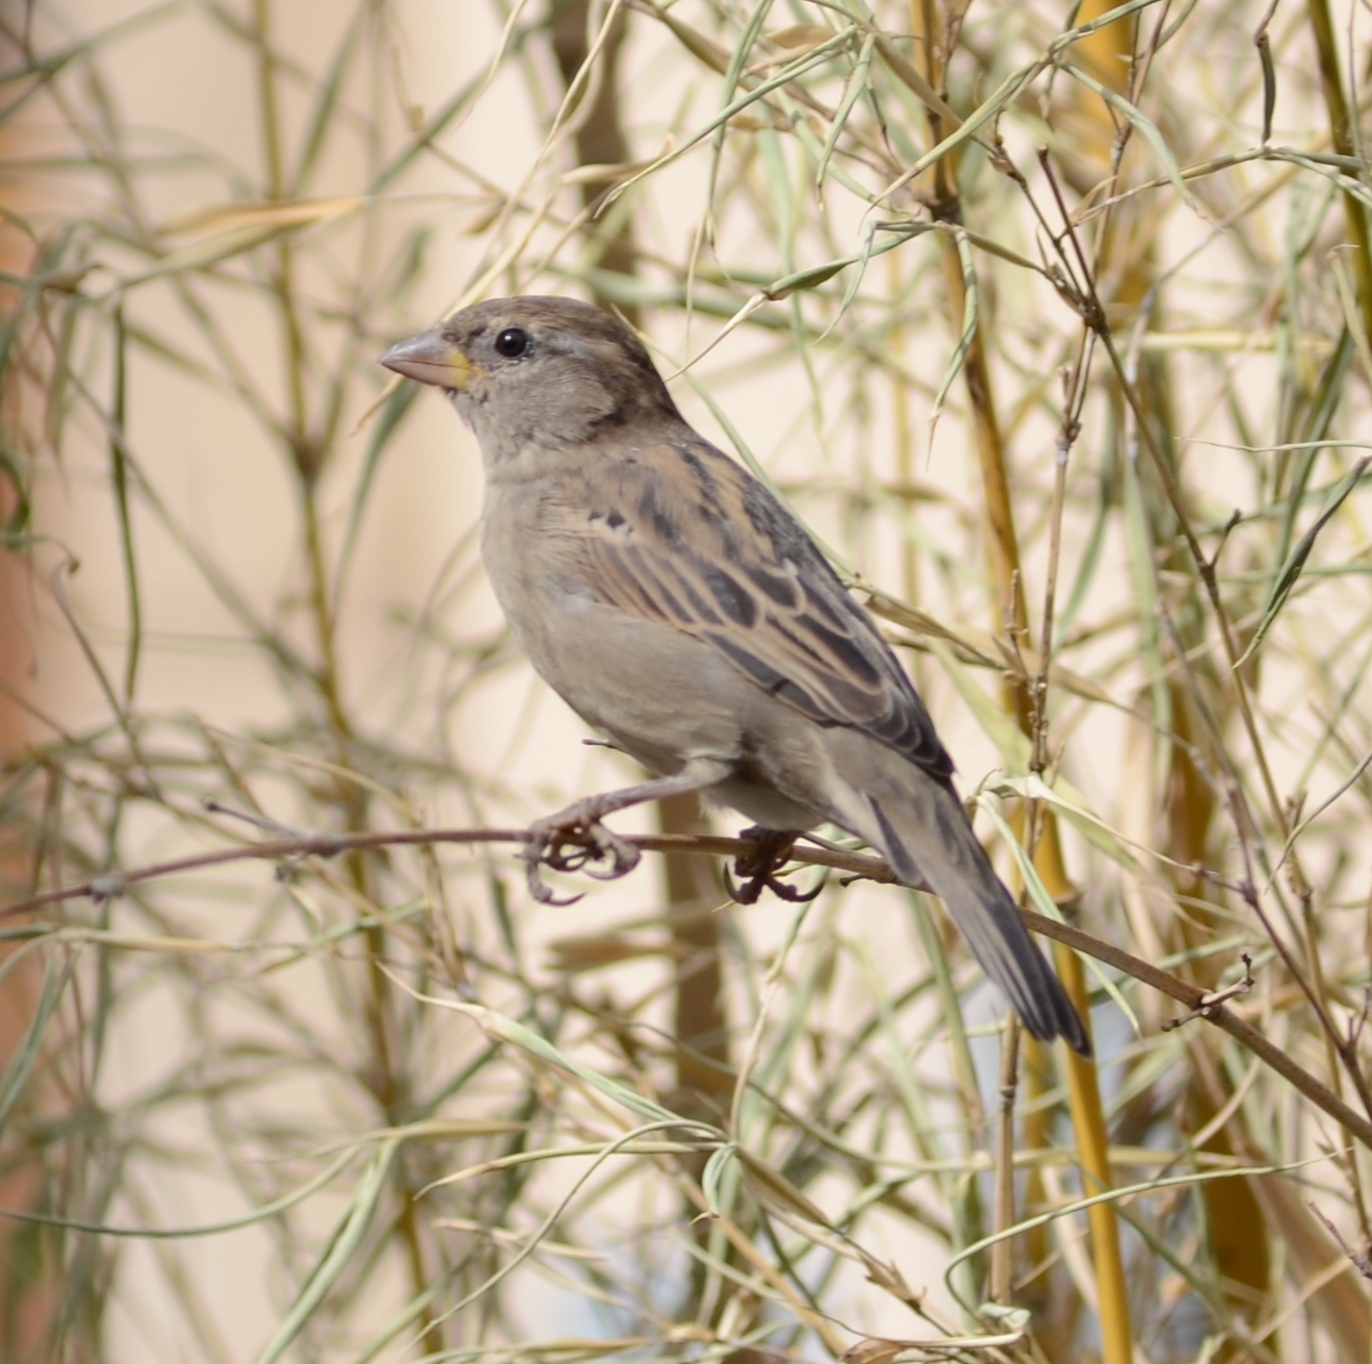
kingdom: Animalia
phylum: Chordata
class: Aves
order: Passeriformes
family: Passeridae
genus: Passer
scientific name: Passer domesticus
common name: House sparrow
